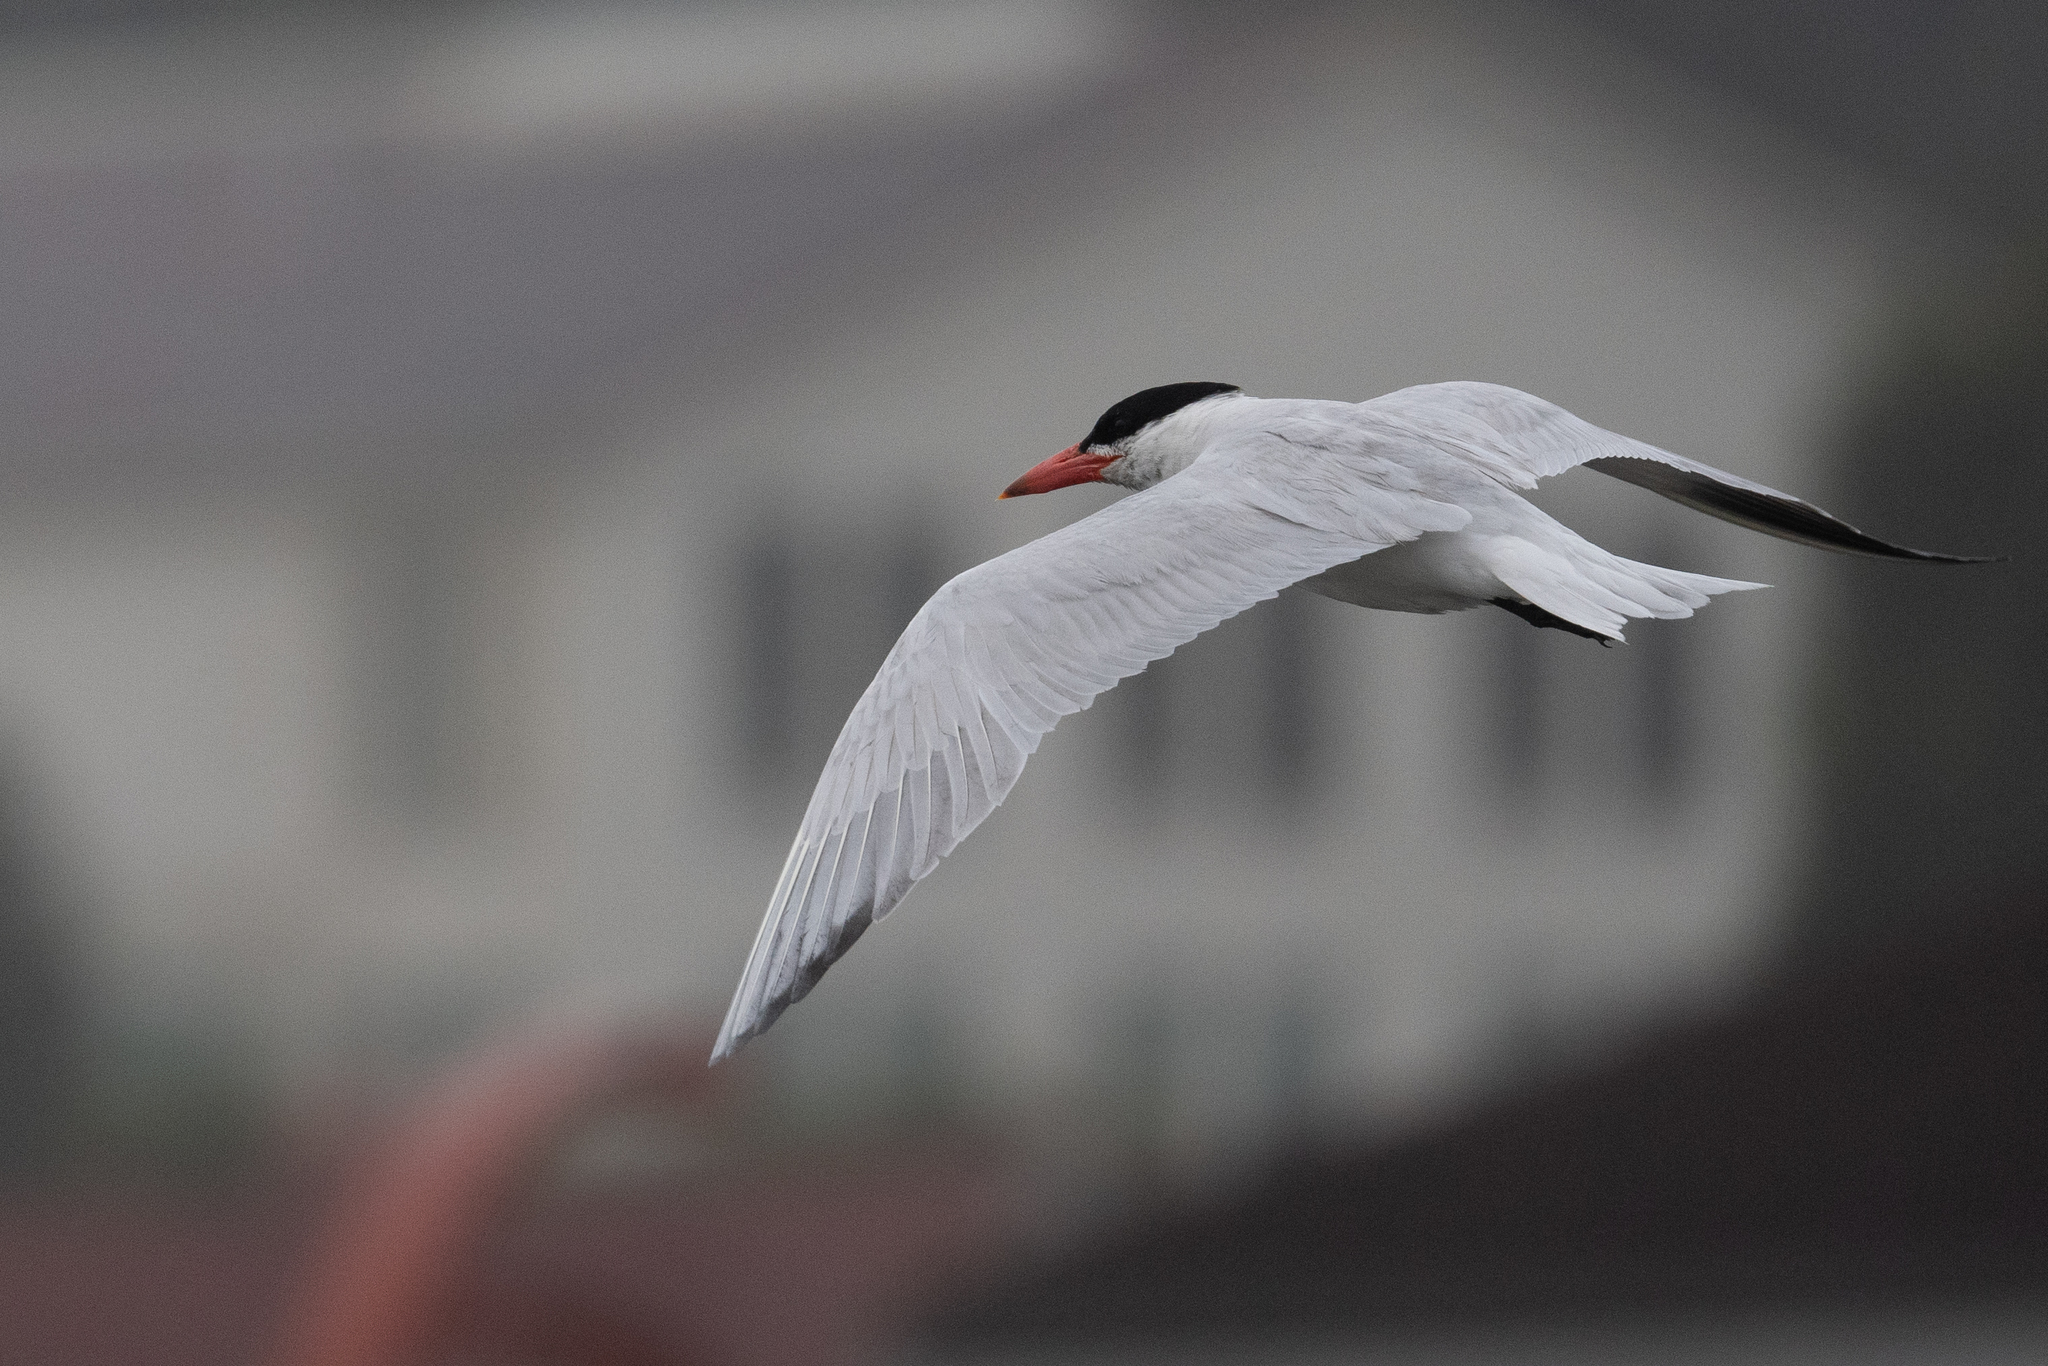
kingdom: Animalia
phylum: Chordata
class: Aves
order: Charadriiformes
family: Laridae
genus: Hydroprogne
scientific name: Hydroprogne caspia
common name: Caspian tern
